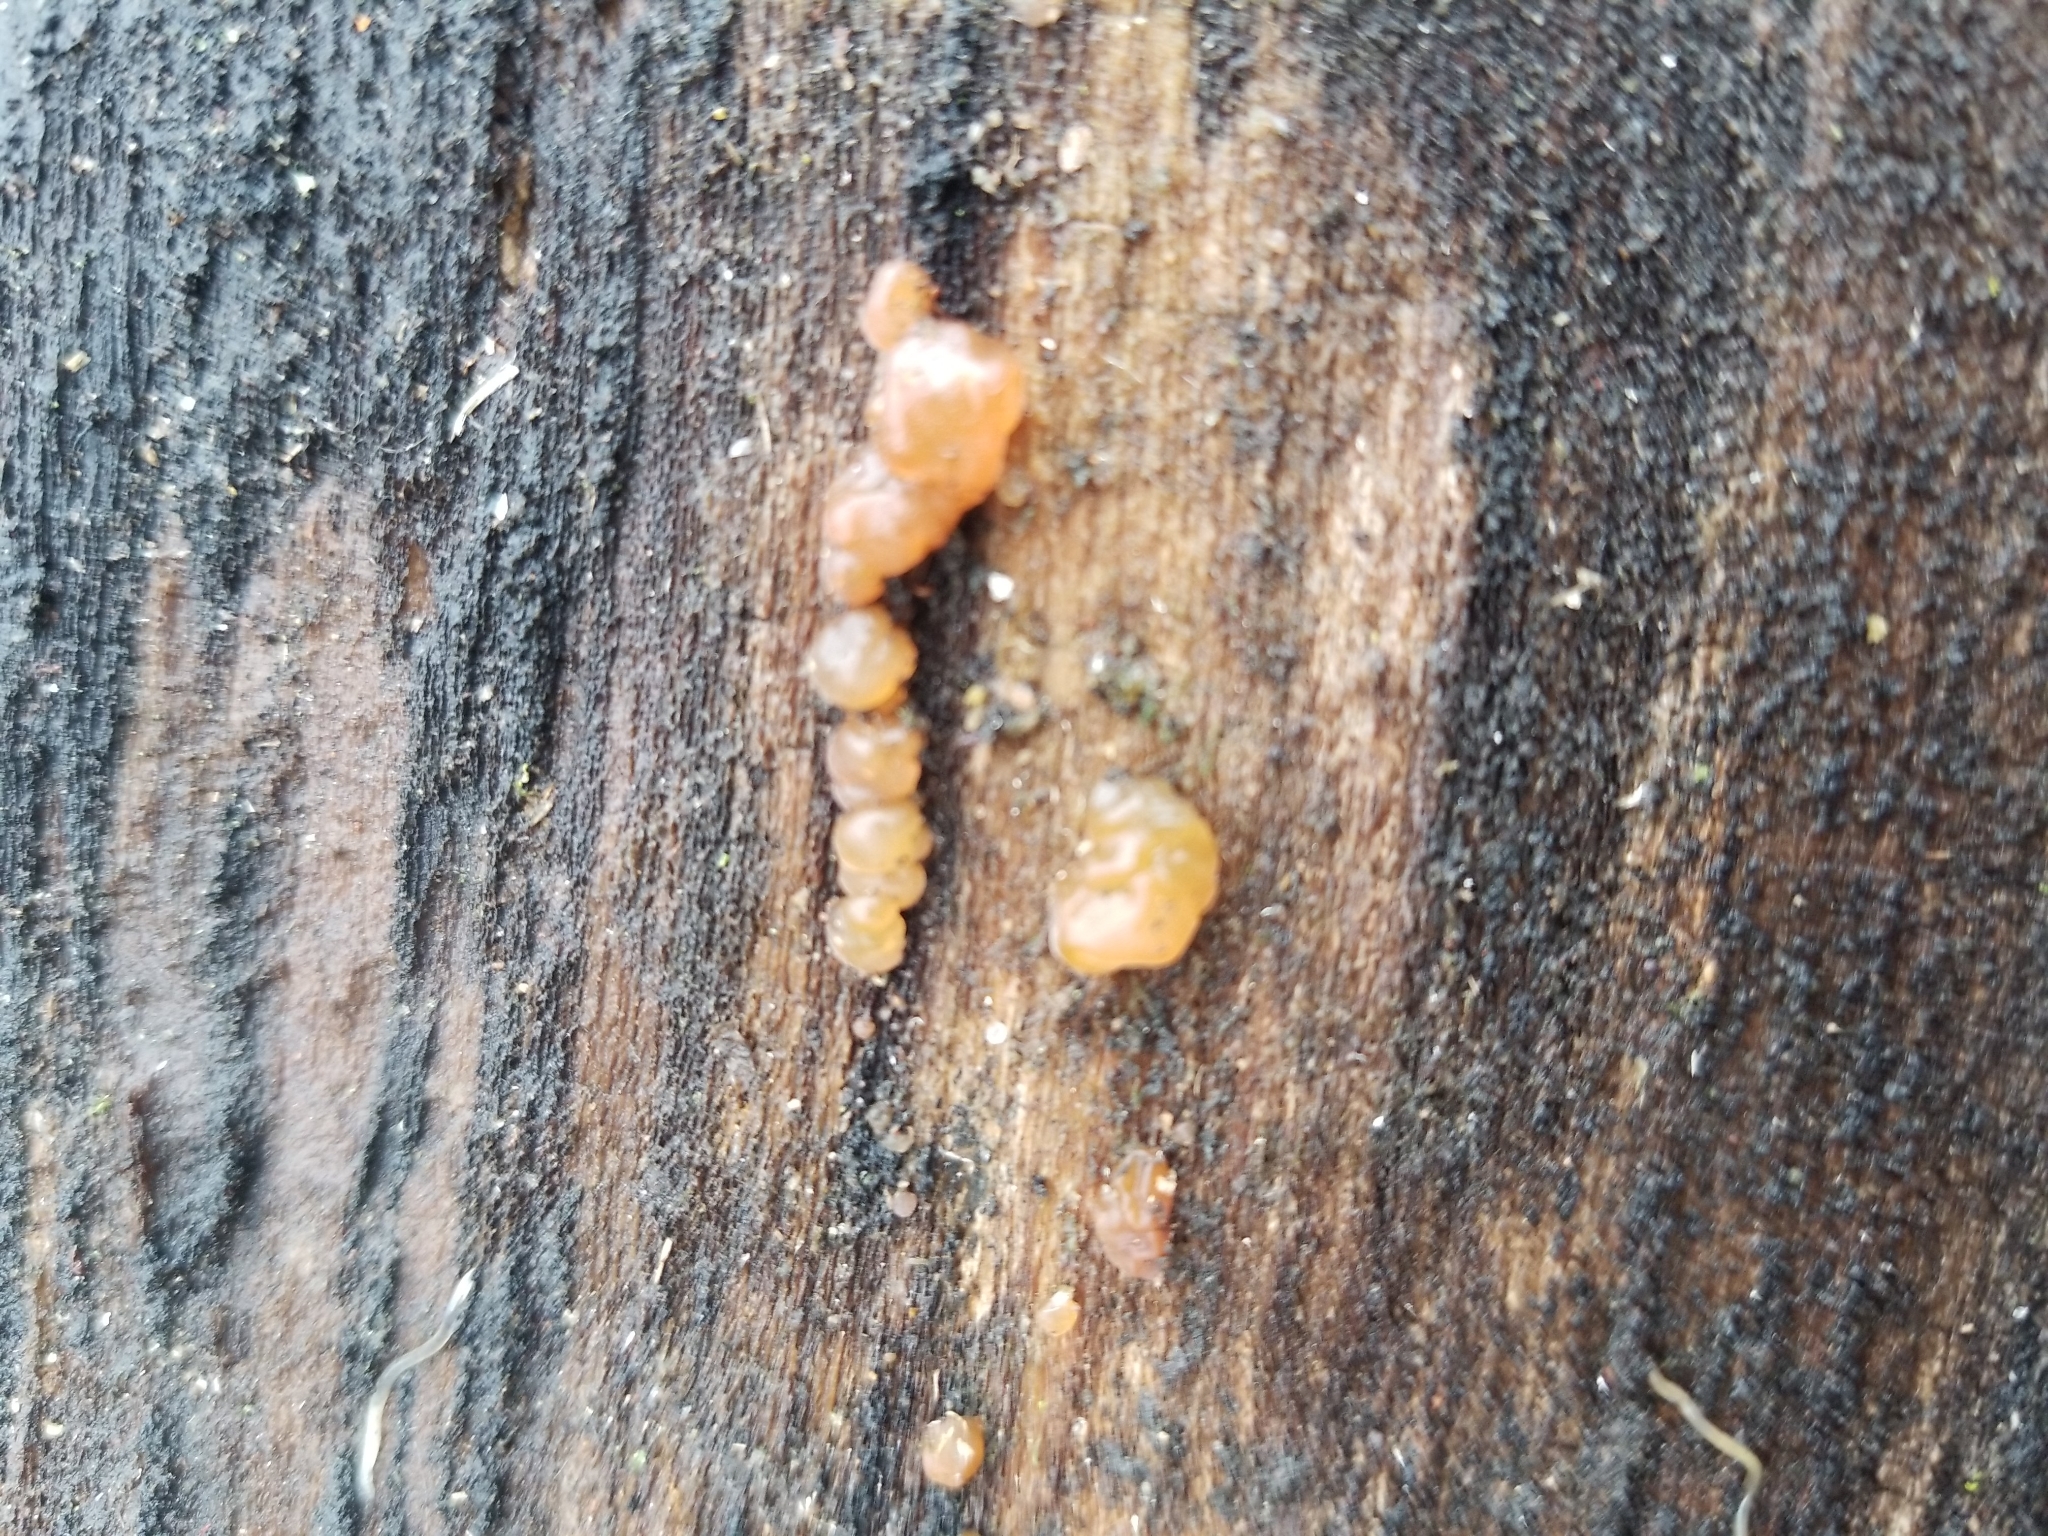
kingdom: Fungi
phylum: Basidiomycota
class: Agaricomycetes
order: Auriculariales
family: Hyaloriaceae
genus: Myxarium
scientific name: Myxarium nucleatum
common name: Crystal brain fungus
